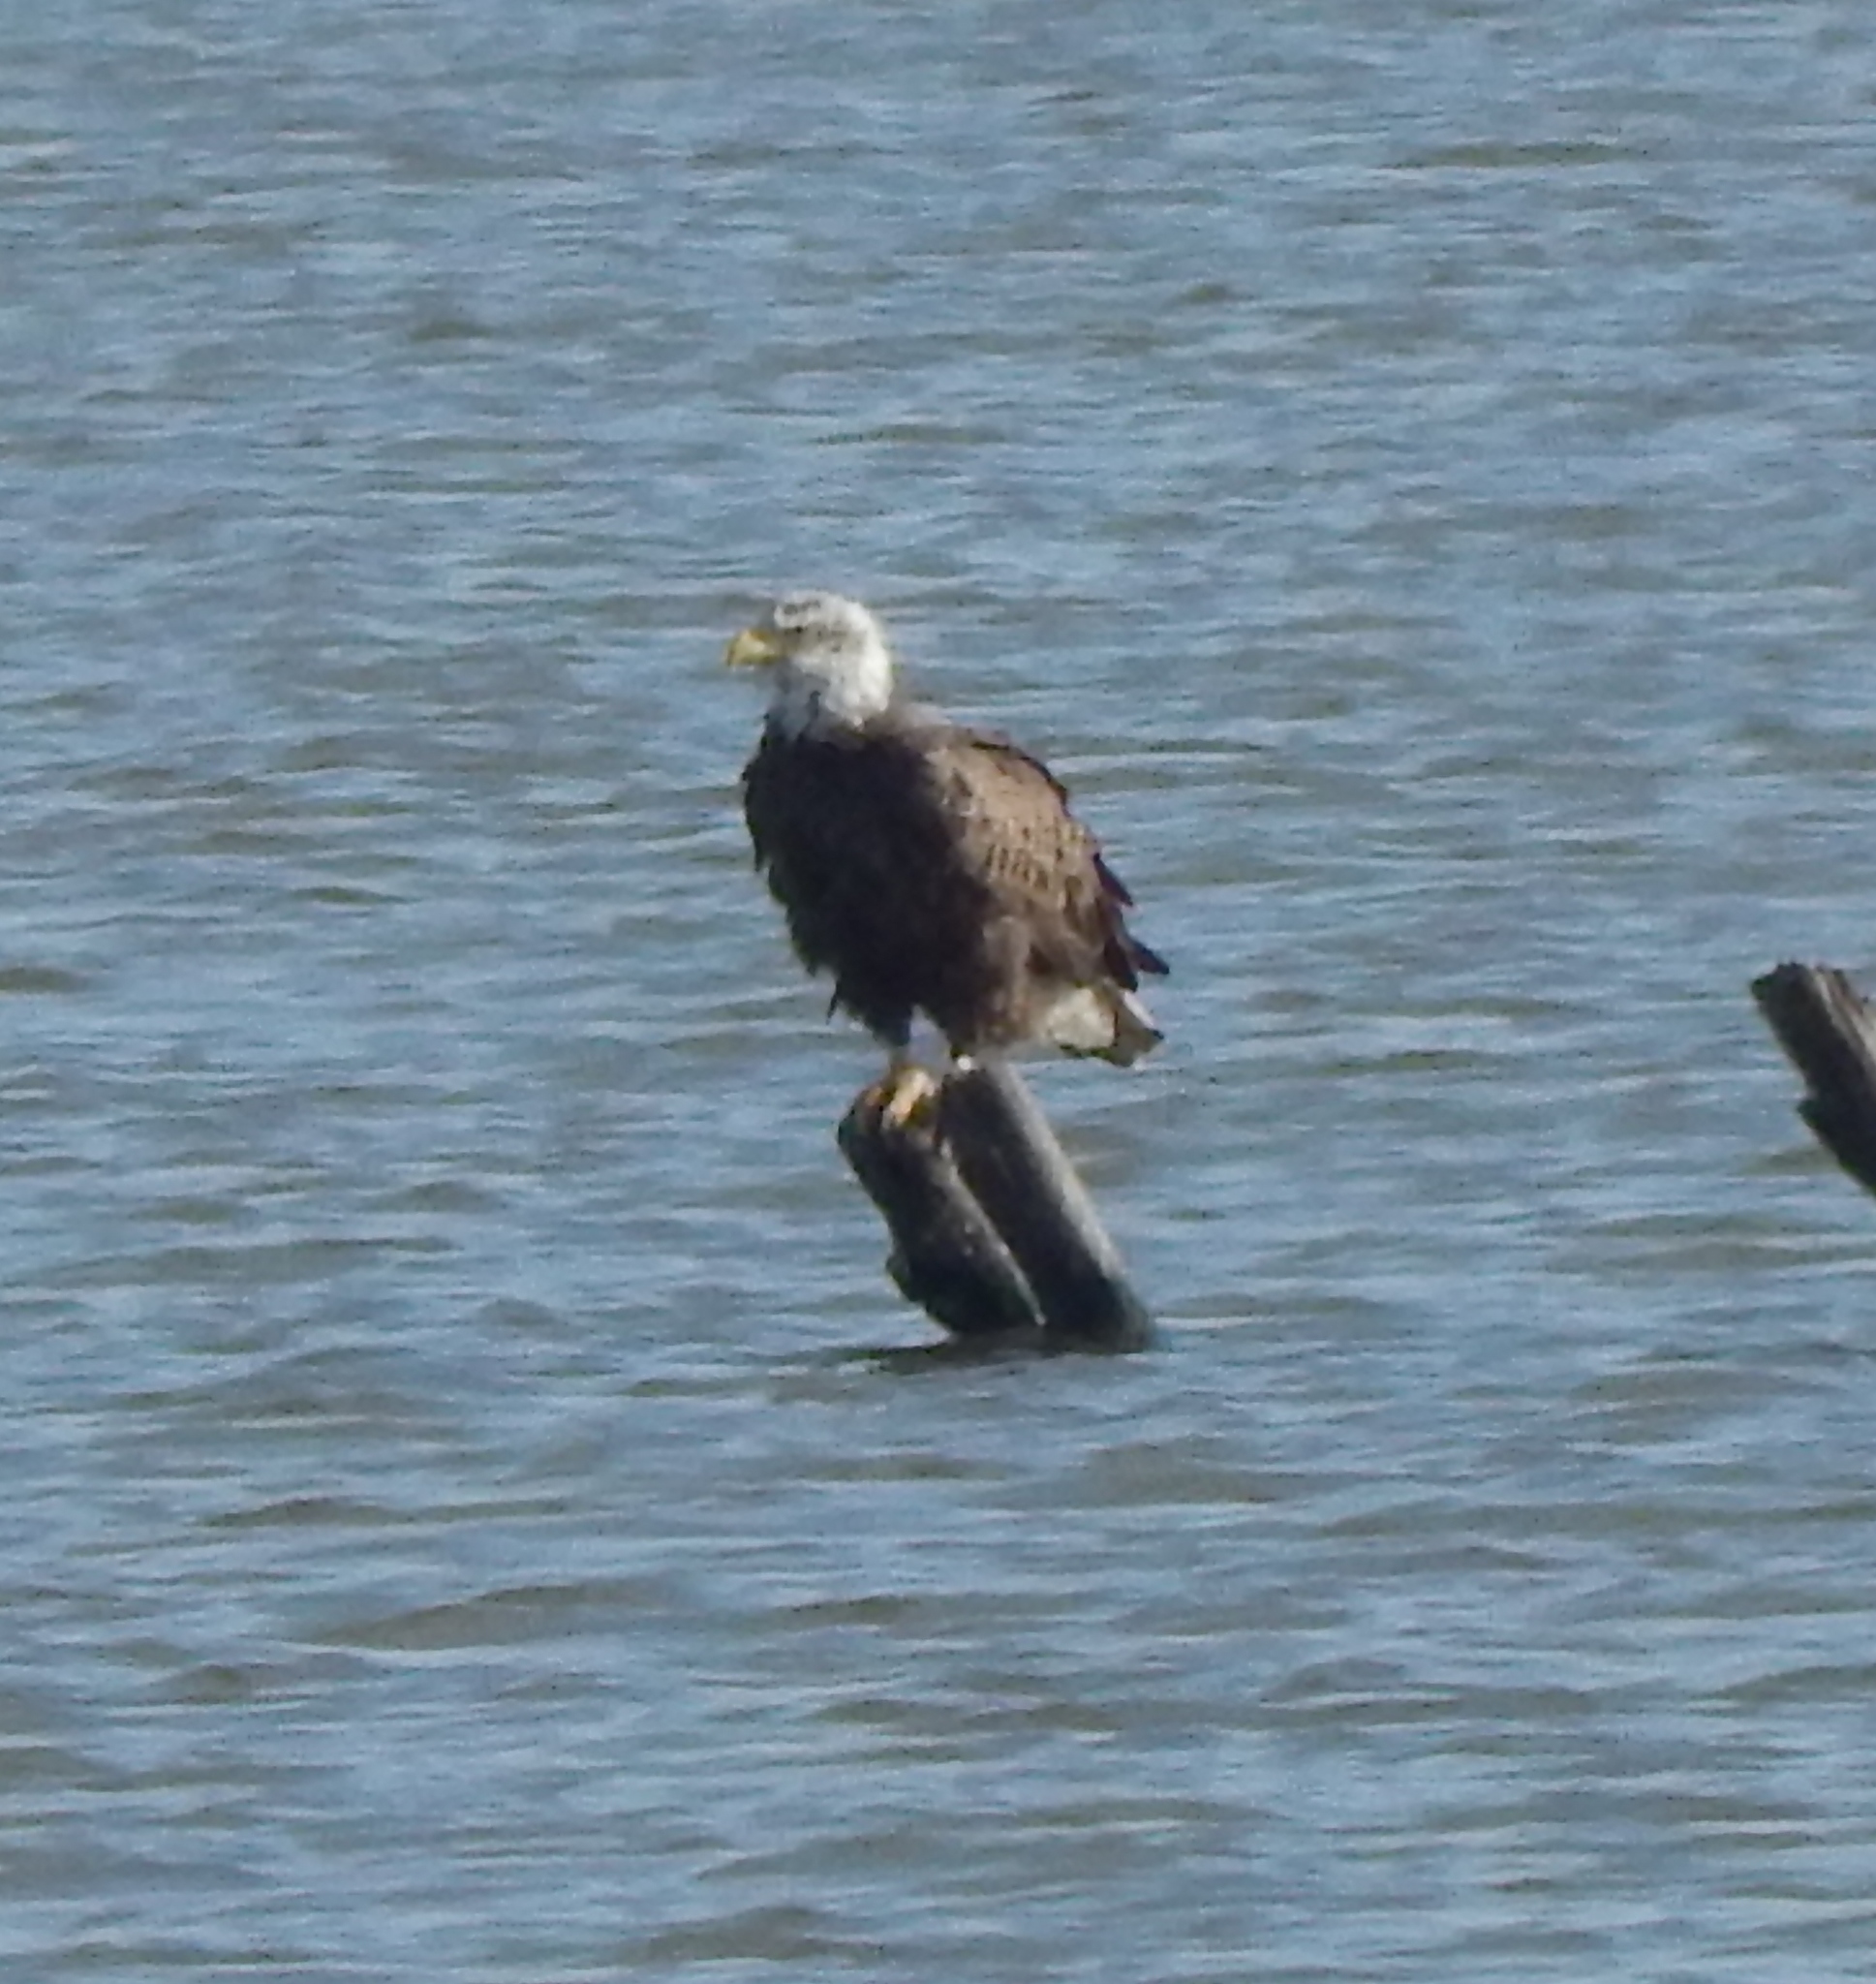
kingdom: Animalia
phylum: Chordata
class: Aves
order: Accipitriformes
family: Accipitridae
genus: Haliaeetus
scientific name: Haliaeetus leucocephalus
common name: Bald eagle
